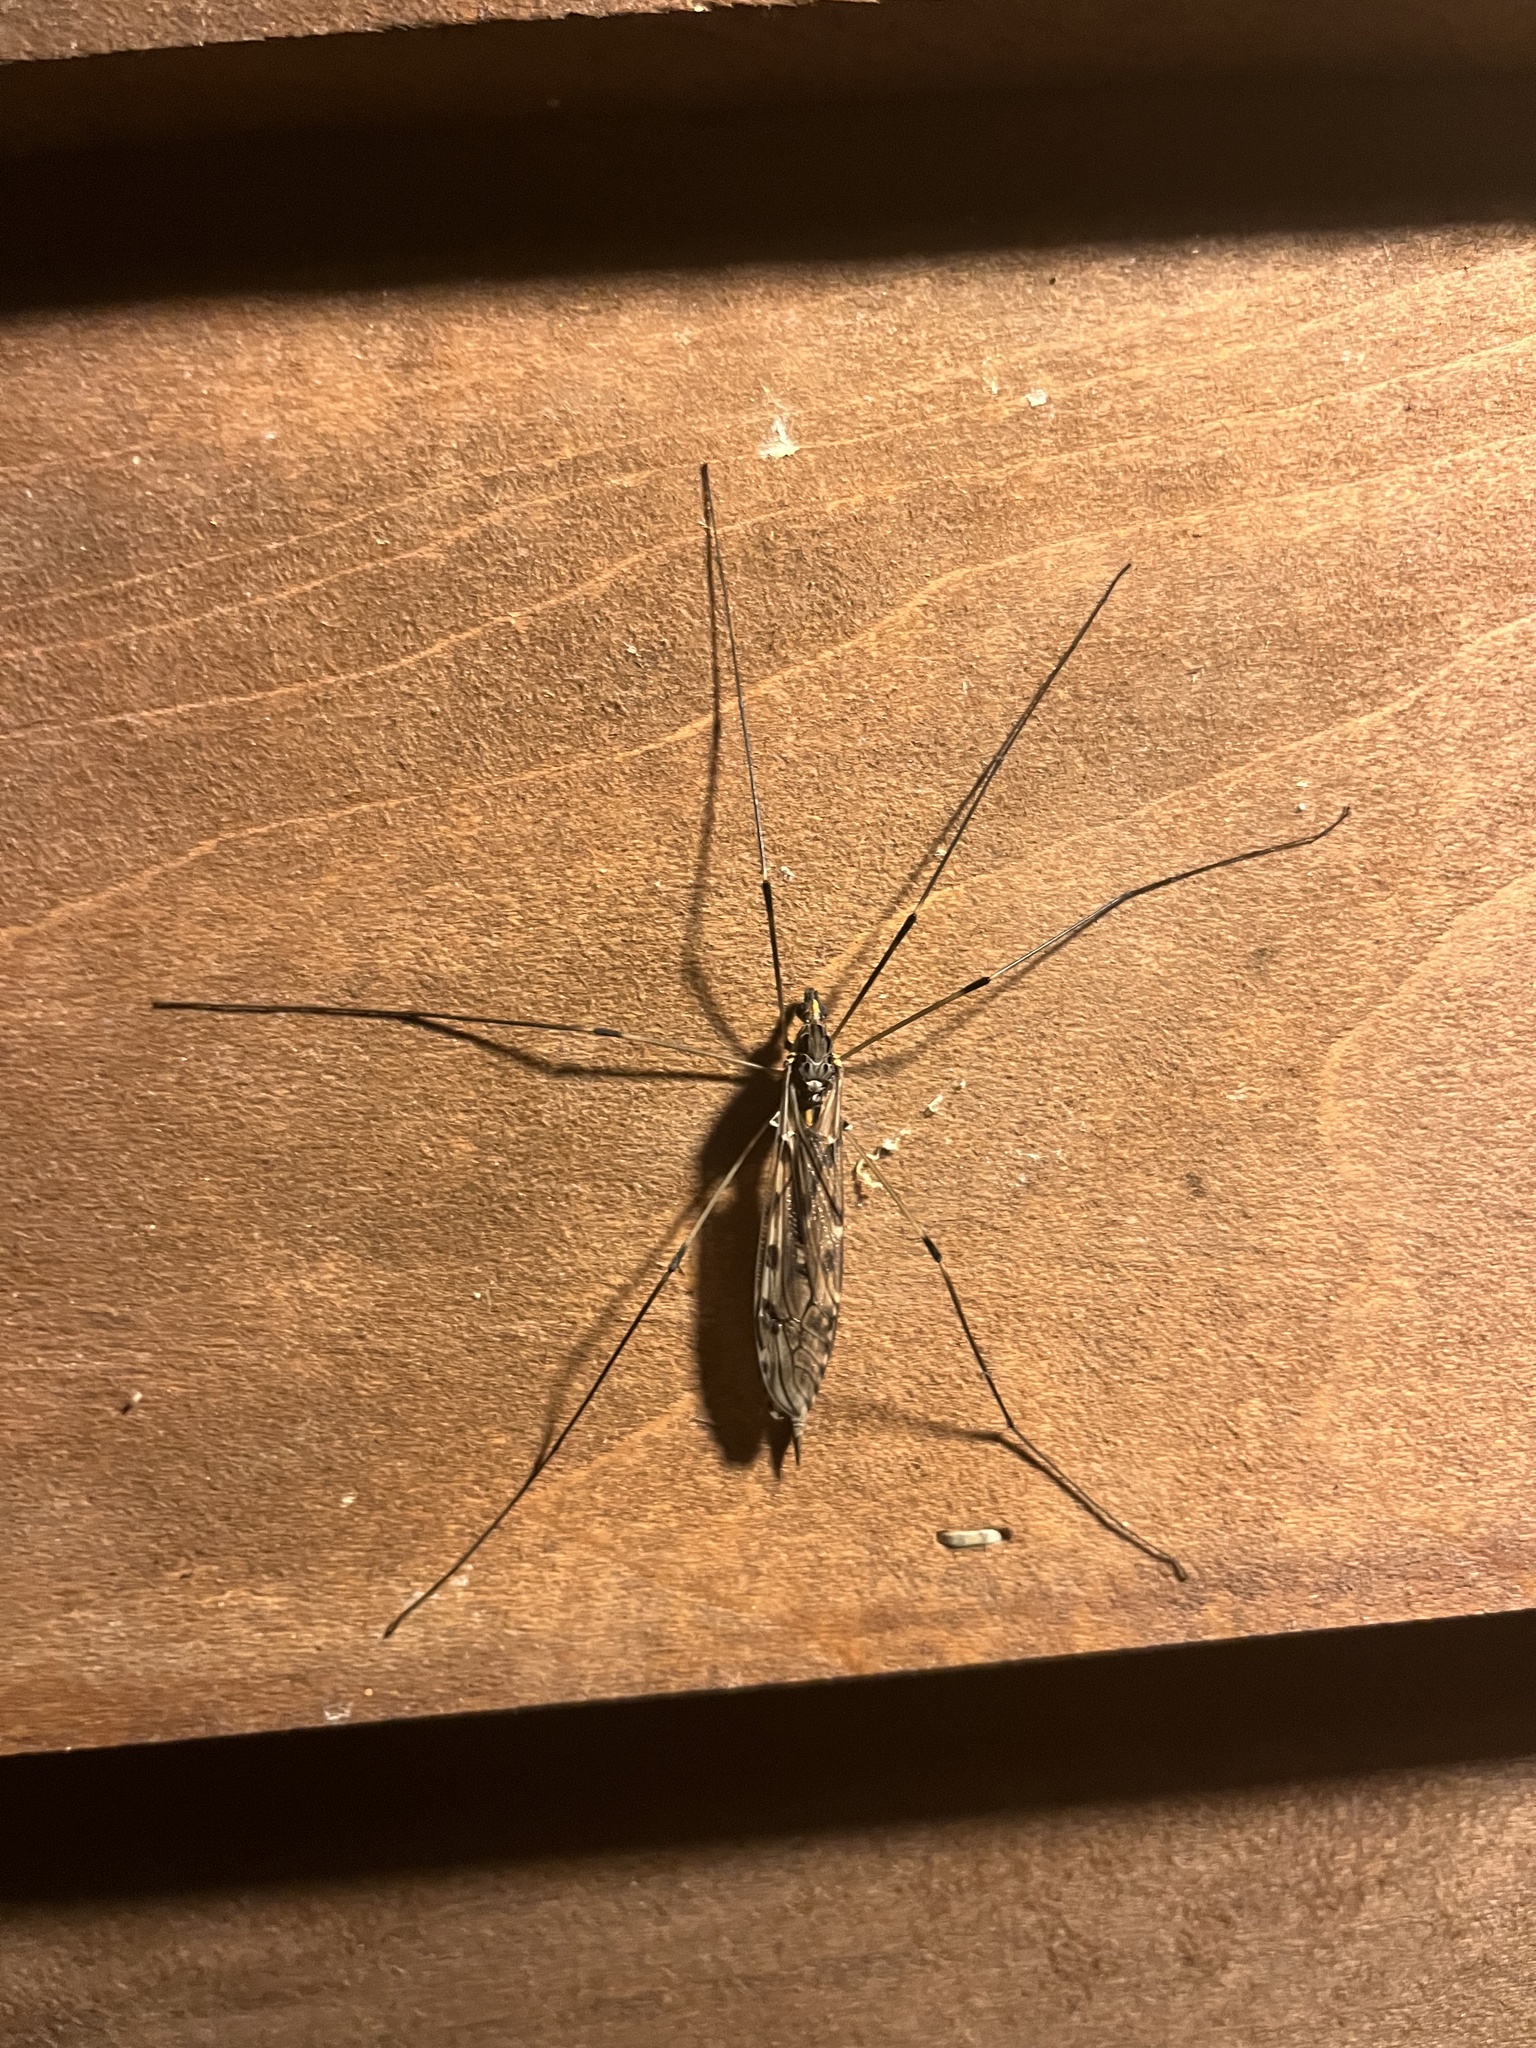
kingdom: Animalia
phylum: Arthropoda
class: Insecta
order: Diptera
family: Tipulidae
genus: Tipula
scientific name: Tipula abdominalis
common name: Giant crane fly
